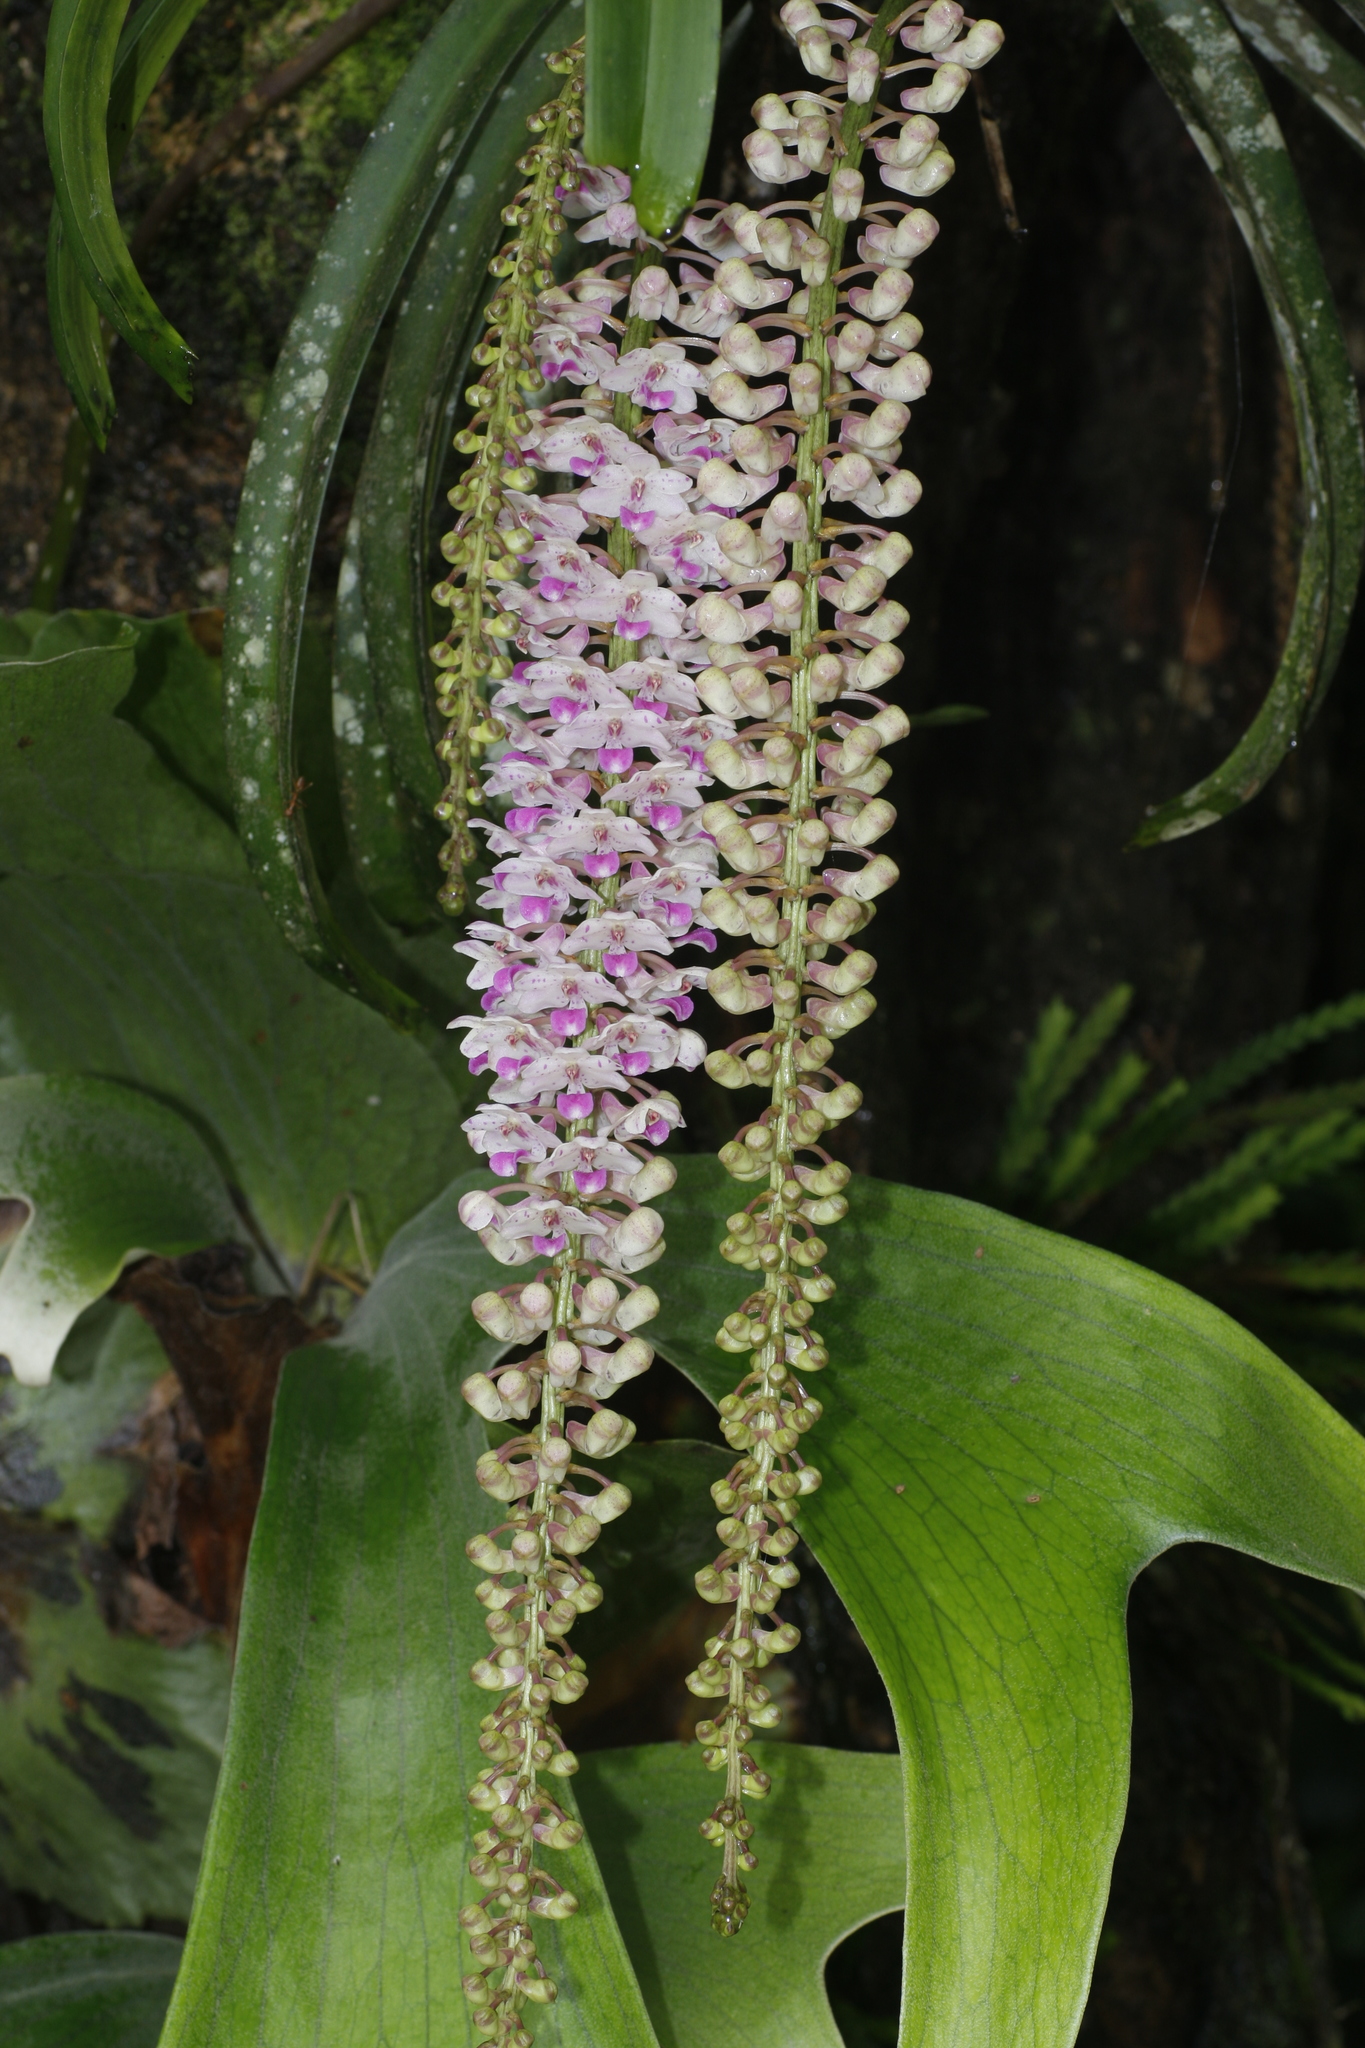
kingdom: Plantae
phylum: Tracheophyta
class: Liliopsida
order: Asparagales
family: Orchidaceae
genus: Rhynchostylis
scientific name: Rhynchostylis retusa
